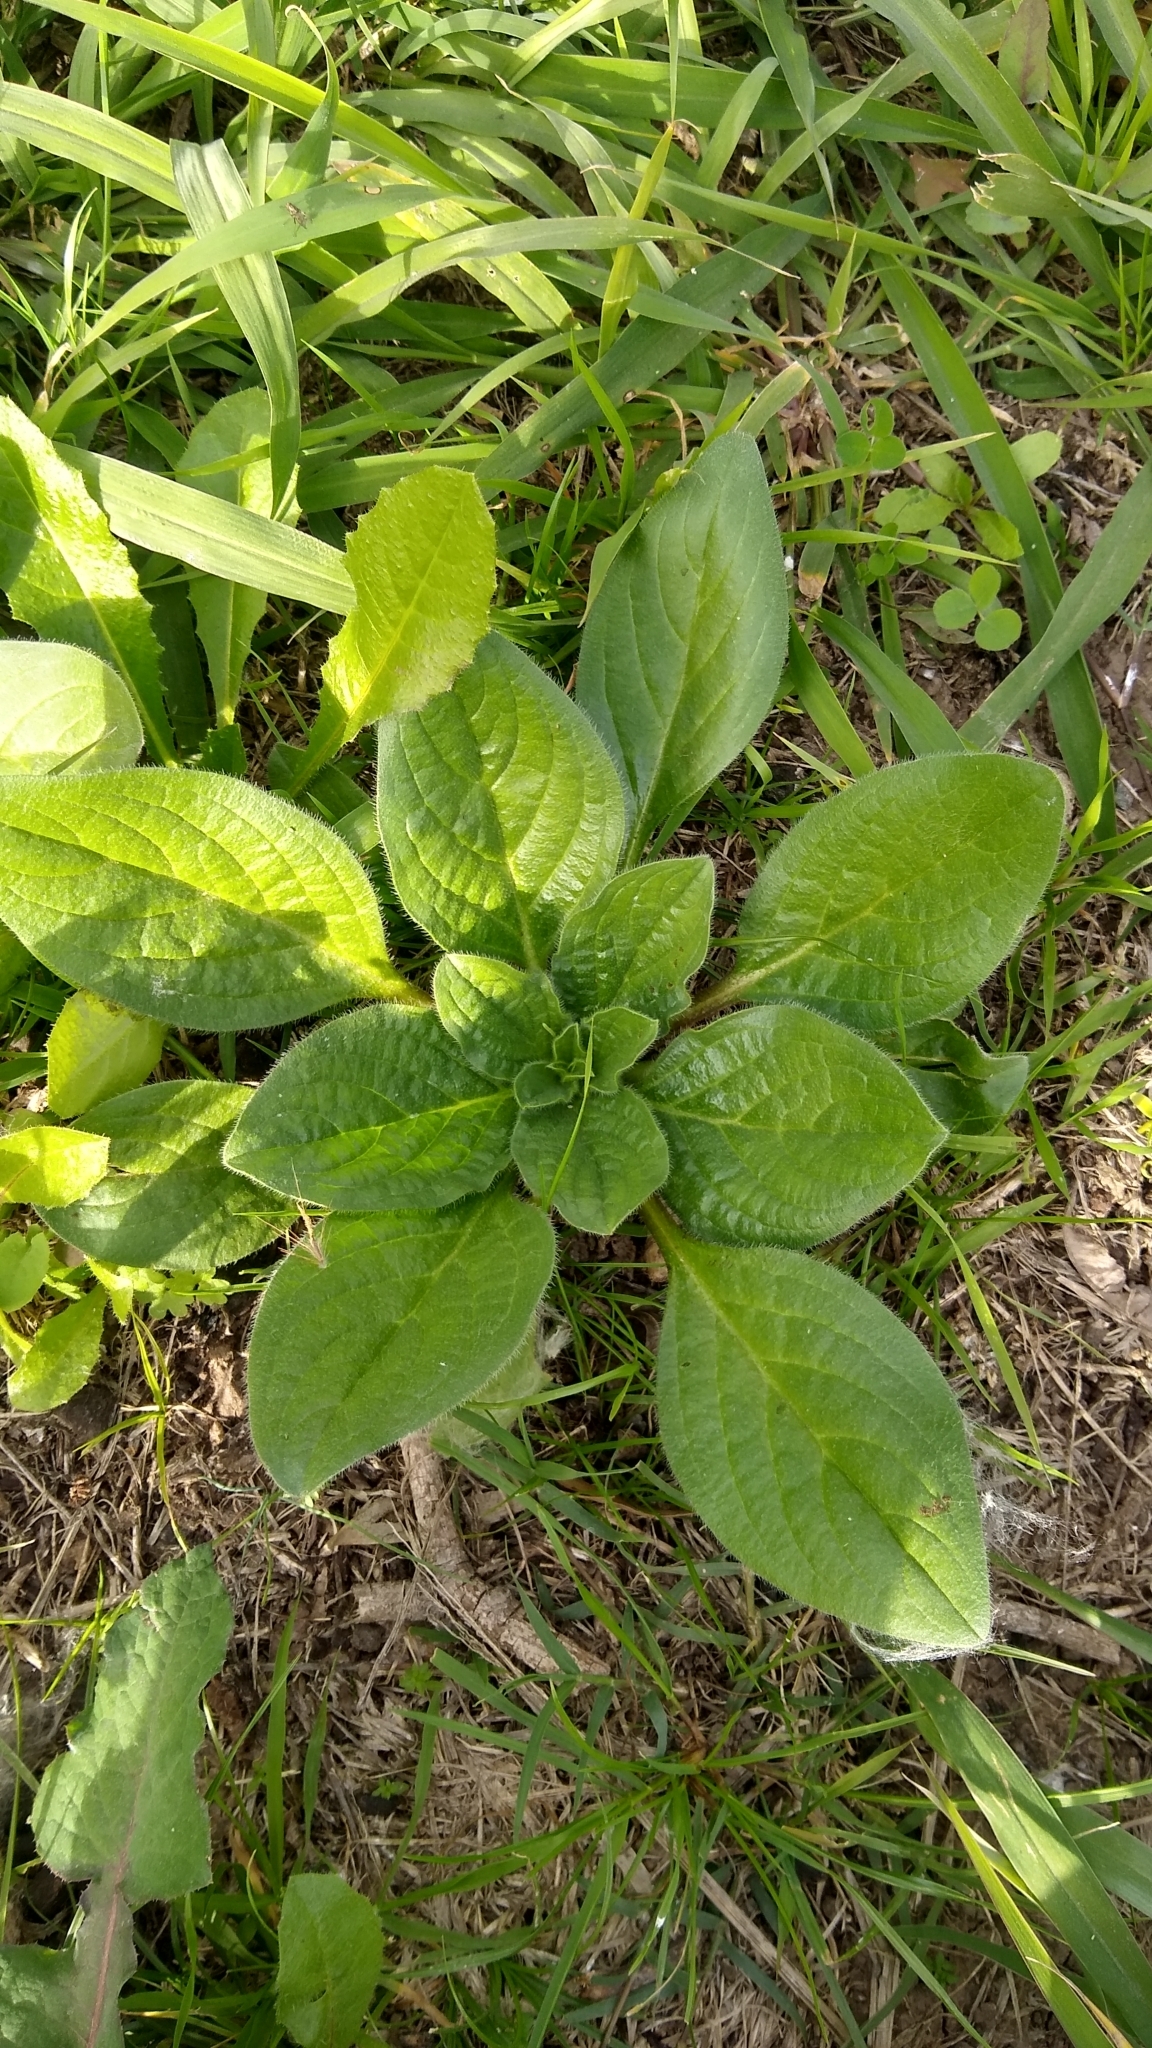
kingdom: Plantae
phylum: Tracheophyta
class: Magnoliopsida
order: Boraginales
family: Boraginaceae
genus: Echium
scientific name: Echium plantagineum
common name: Purple viper's-bugloss
